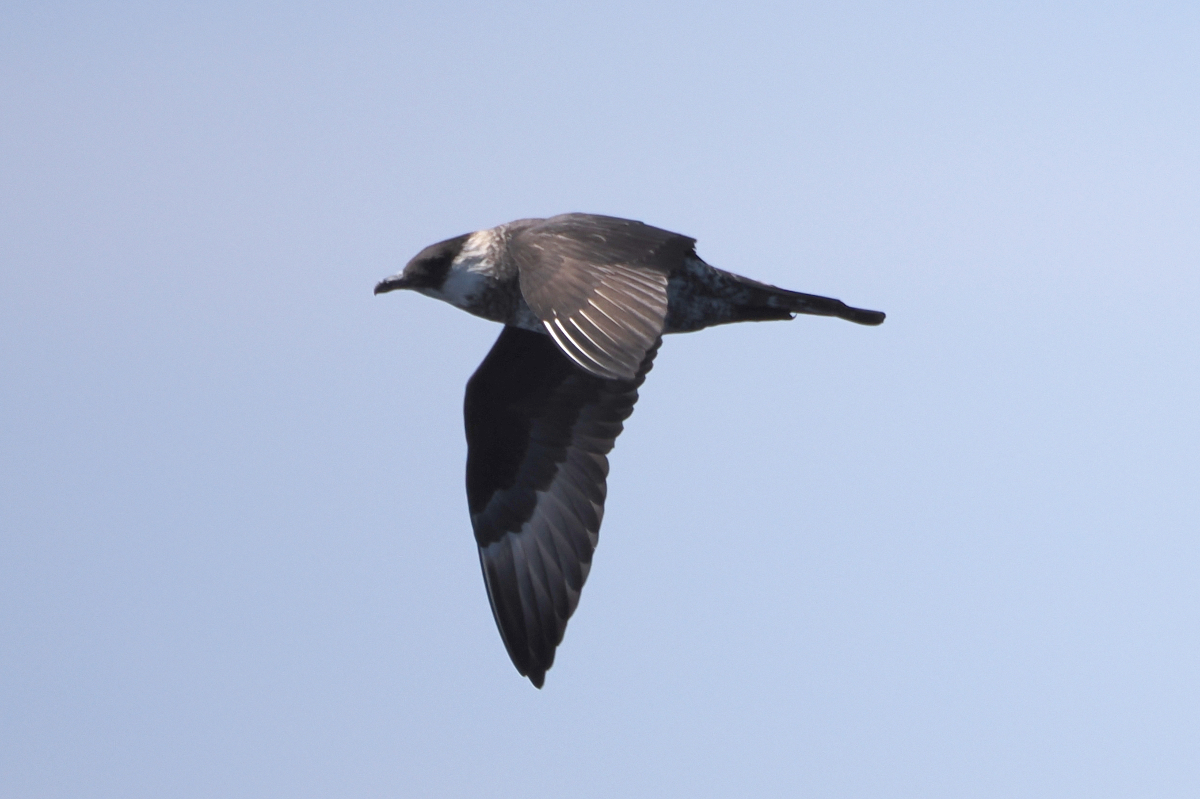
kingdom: Animalia
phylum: Chordata
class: Aves
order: Charadriiformes
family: Stercorariidae
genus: Stercorarius
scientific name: Stercorarius pomarinus
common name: Pomarine jaeger
